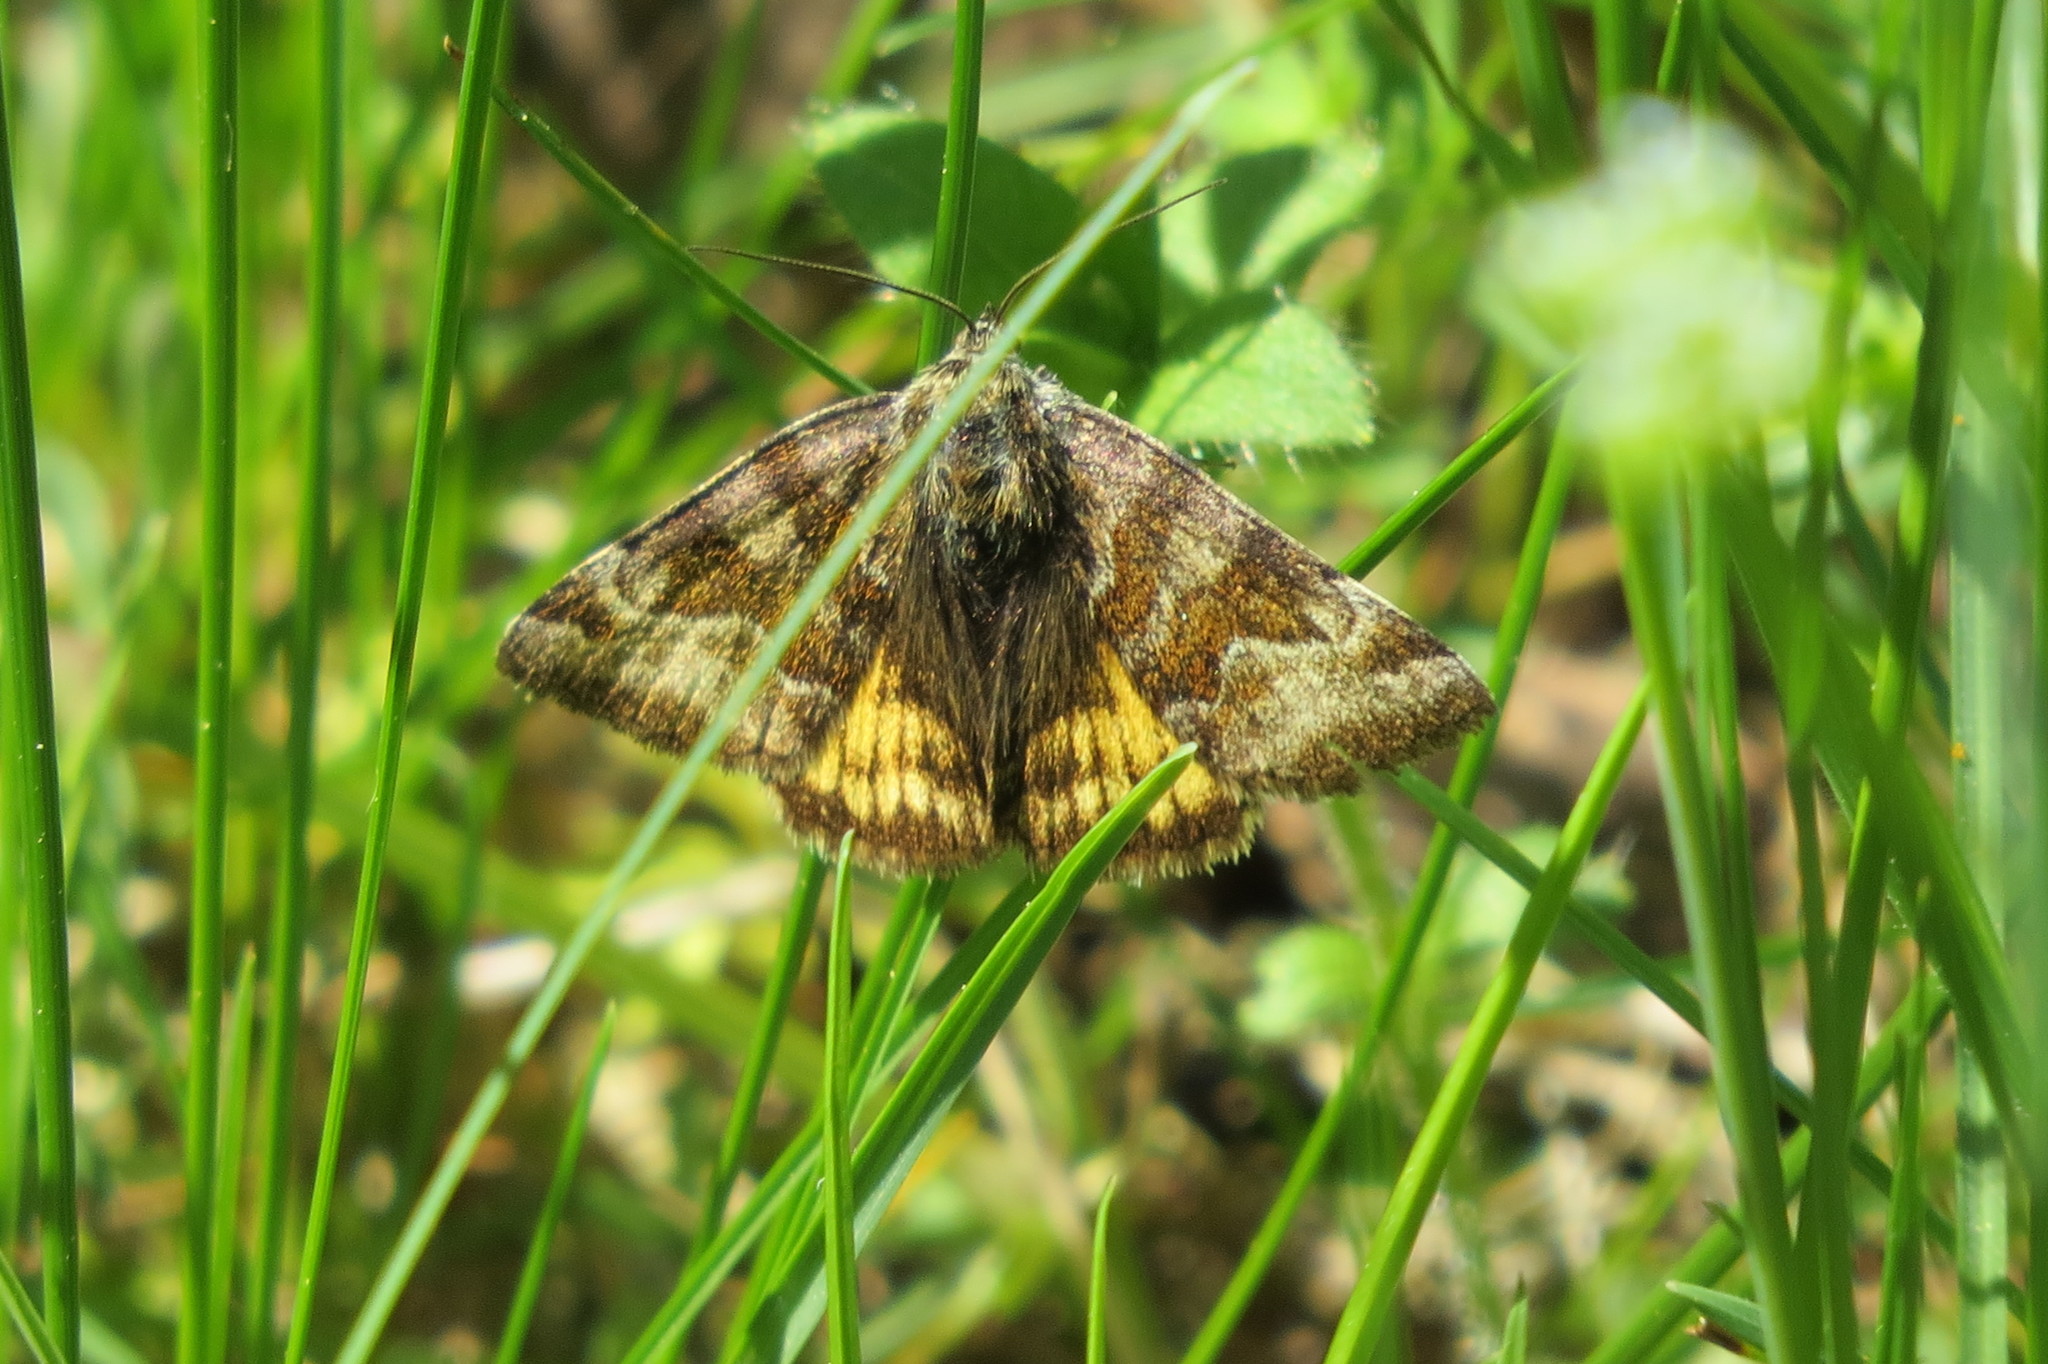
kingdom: Animalia
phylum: Arthropoda
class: Insecta
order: Lepidoptera
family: Erebidae
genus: Euclidia
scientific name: Euclidia glyphica
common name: Burnet companion
